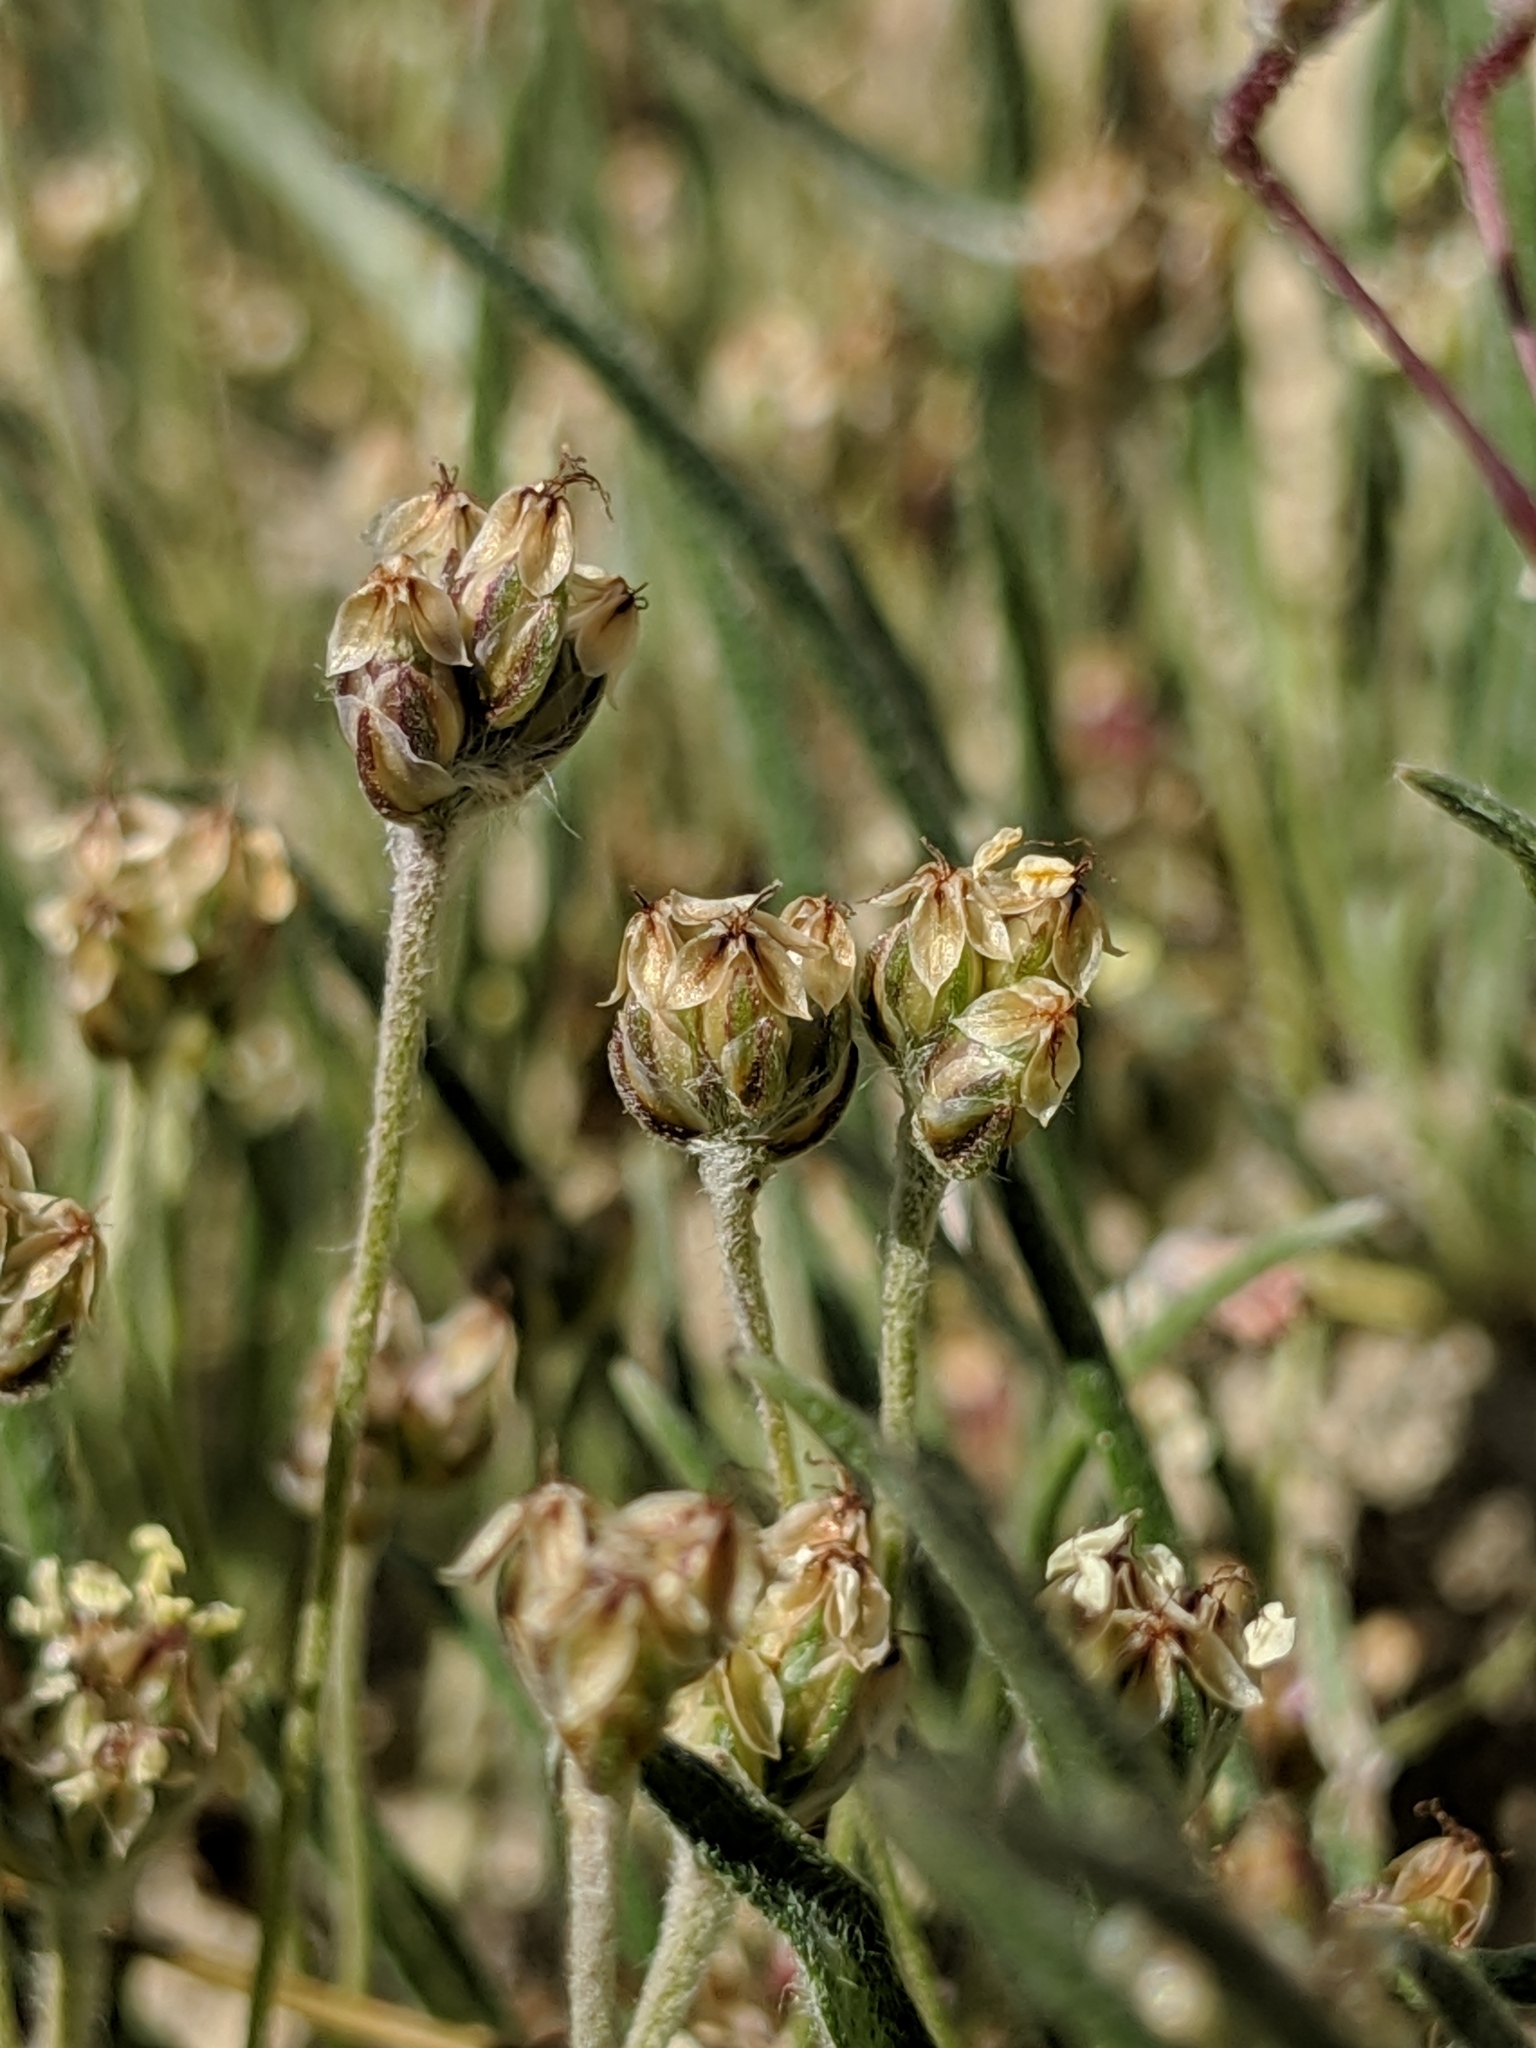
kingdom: Plantae
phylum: Tracheophyta
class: Magnoliopsida
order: Lamiales
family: Plantaginaceae
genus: Plantago
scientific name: Plantago ovata
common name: Blond plantain
